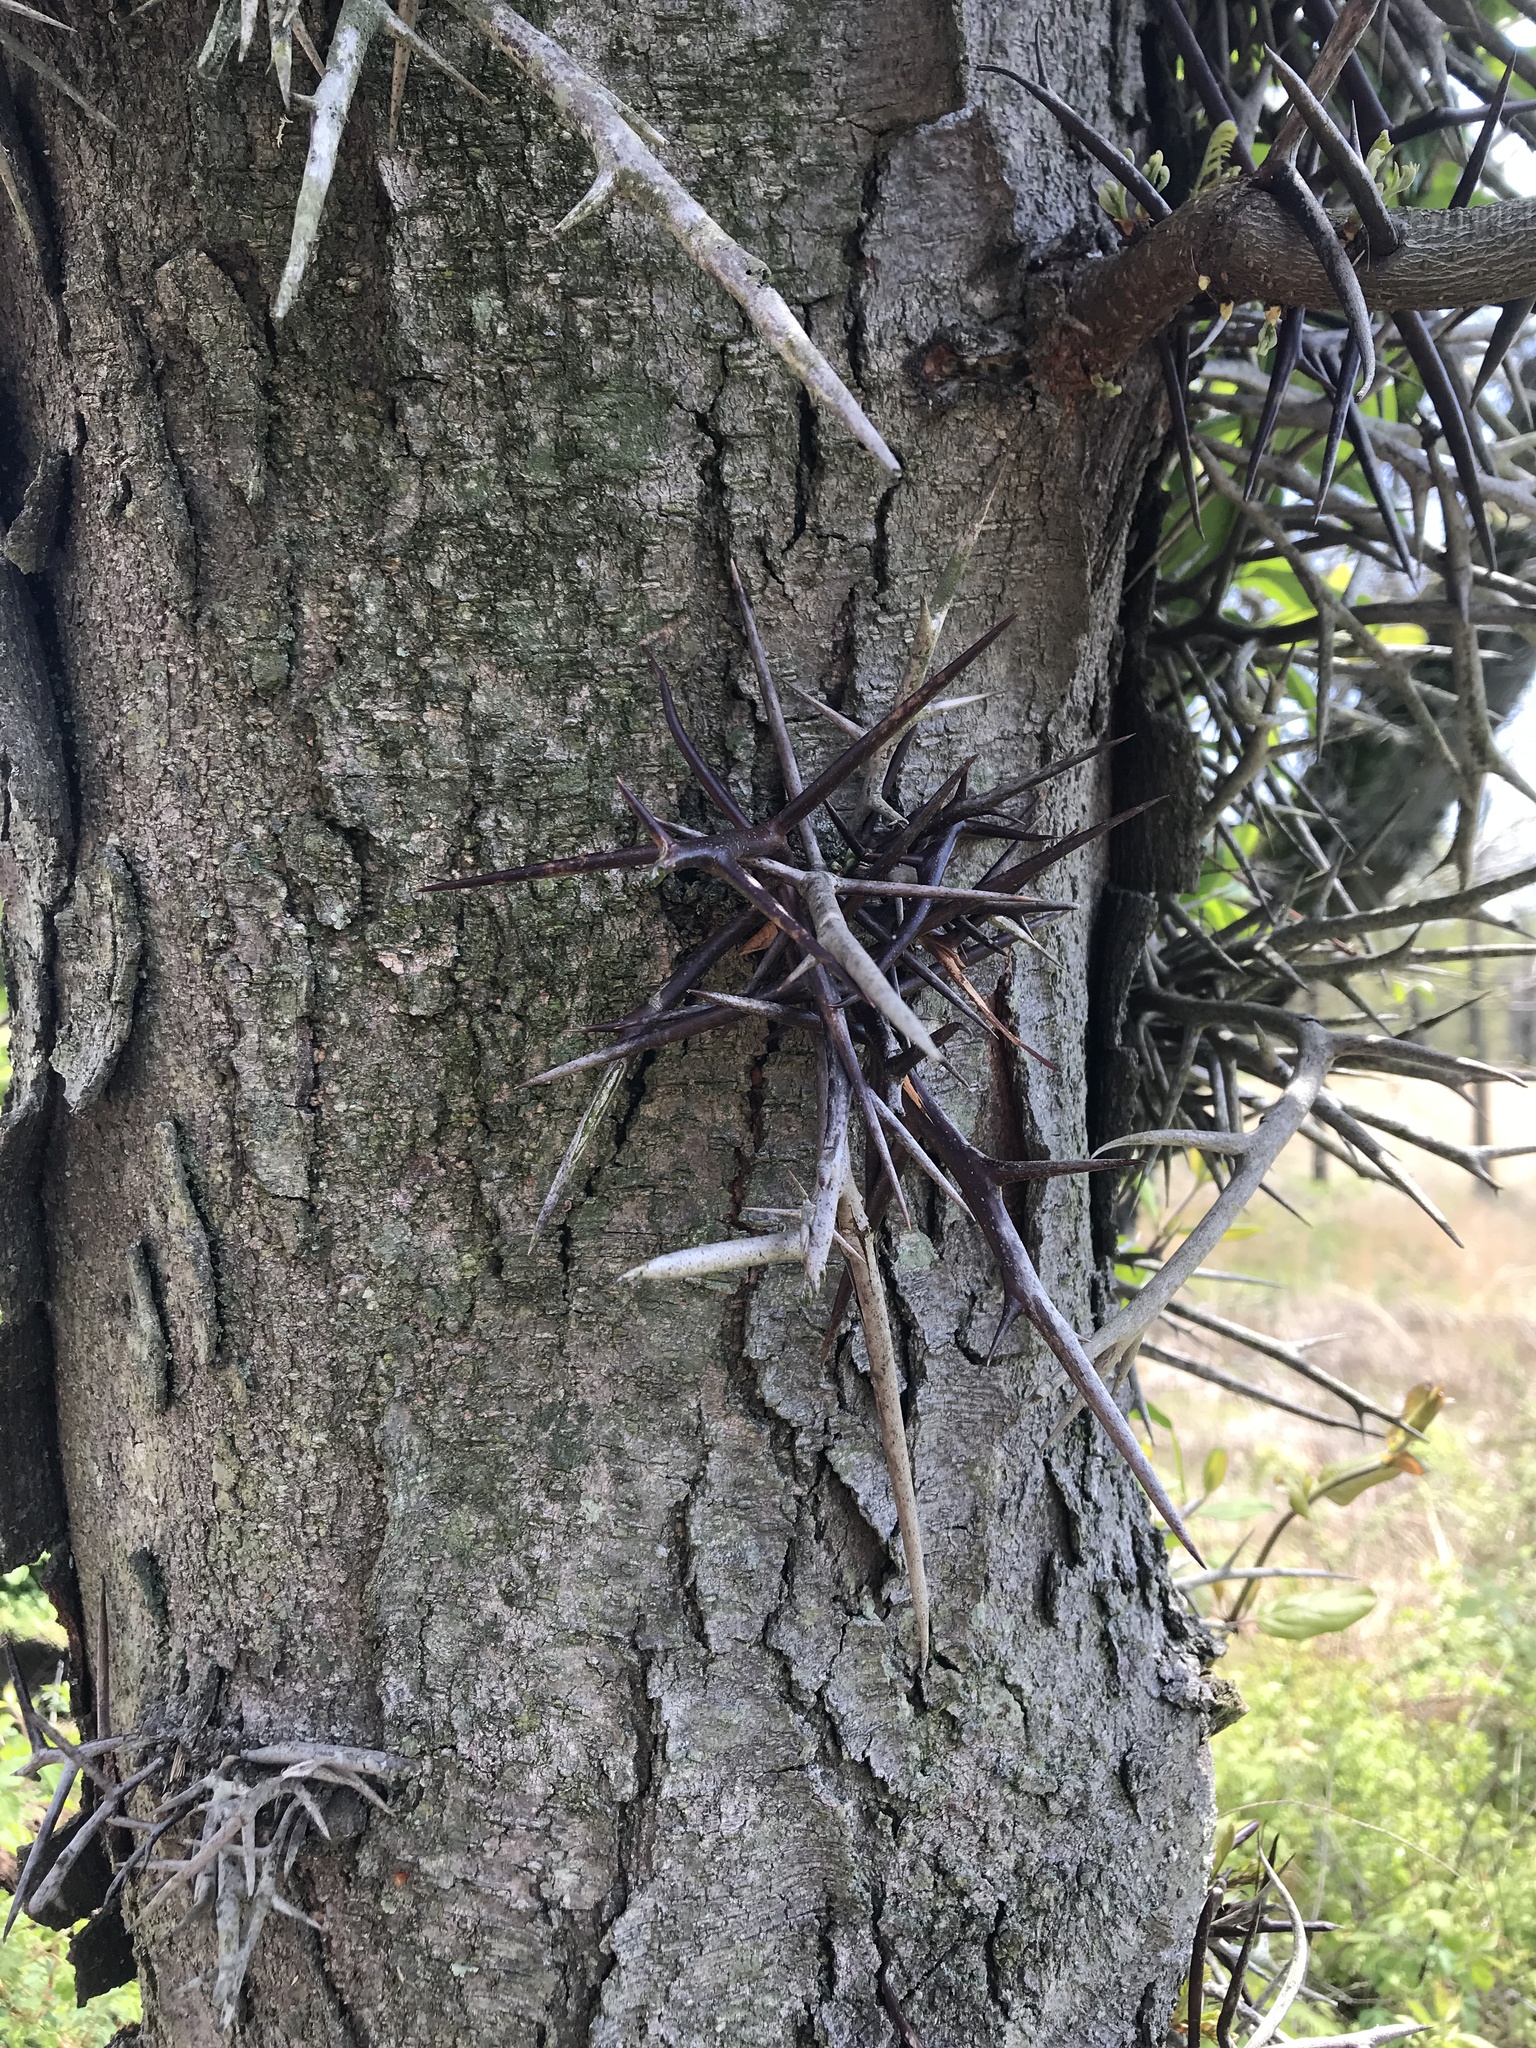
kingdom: Plantae
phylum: Tracheophyta
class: Magnoliopsida
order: Fabales
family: Fabaceae
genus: Gleditsia
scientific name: Gleditsia triacanthos
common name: Common honeylocust
